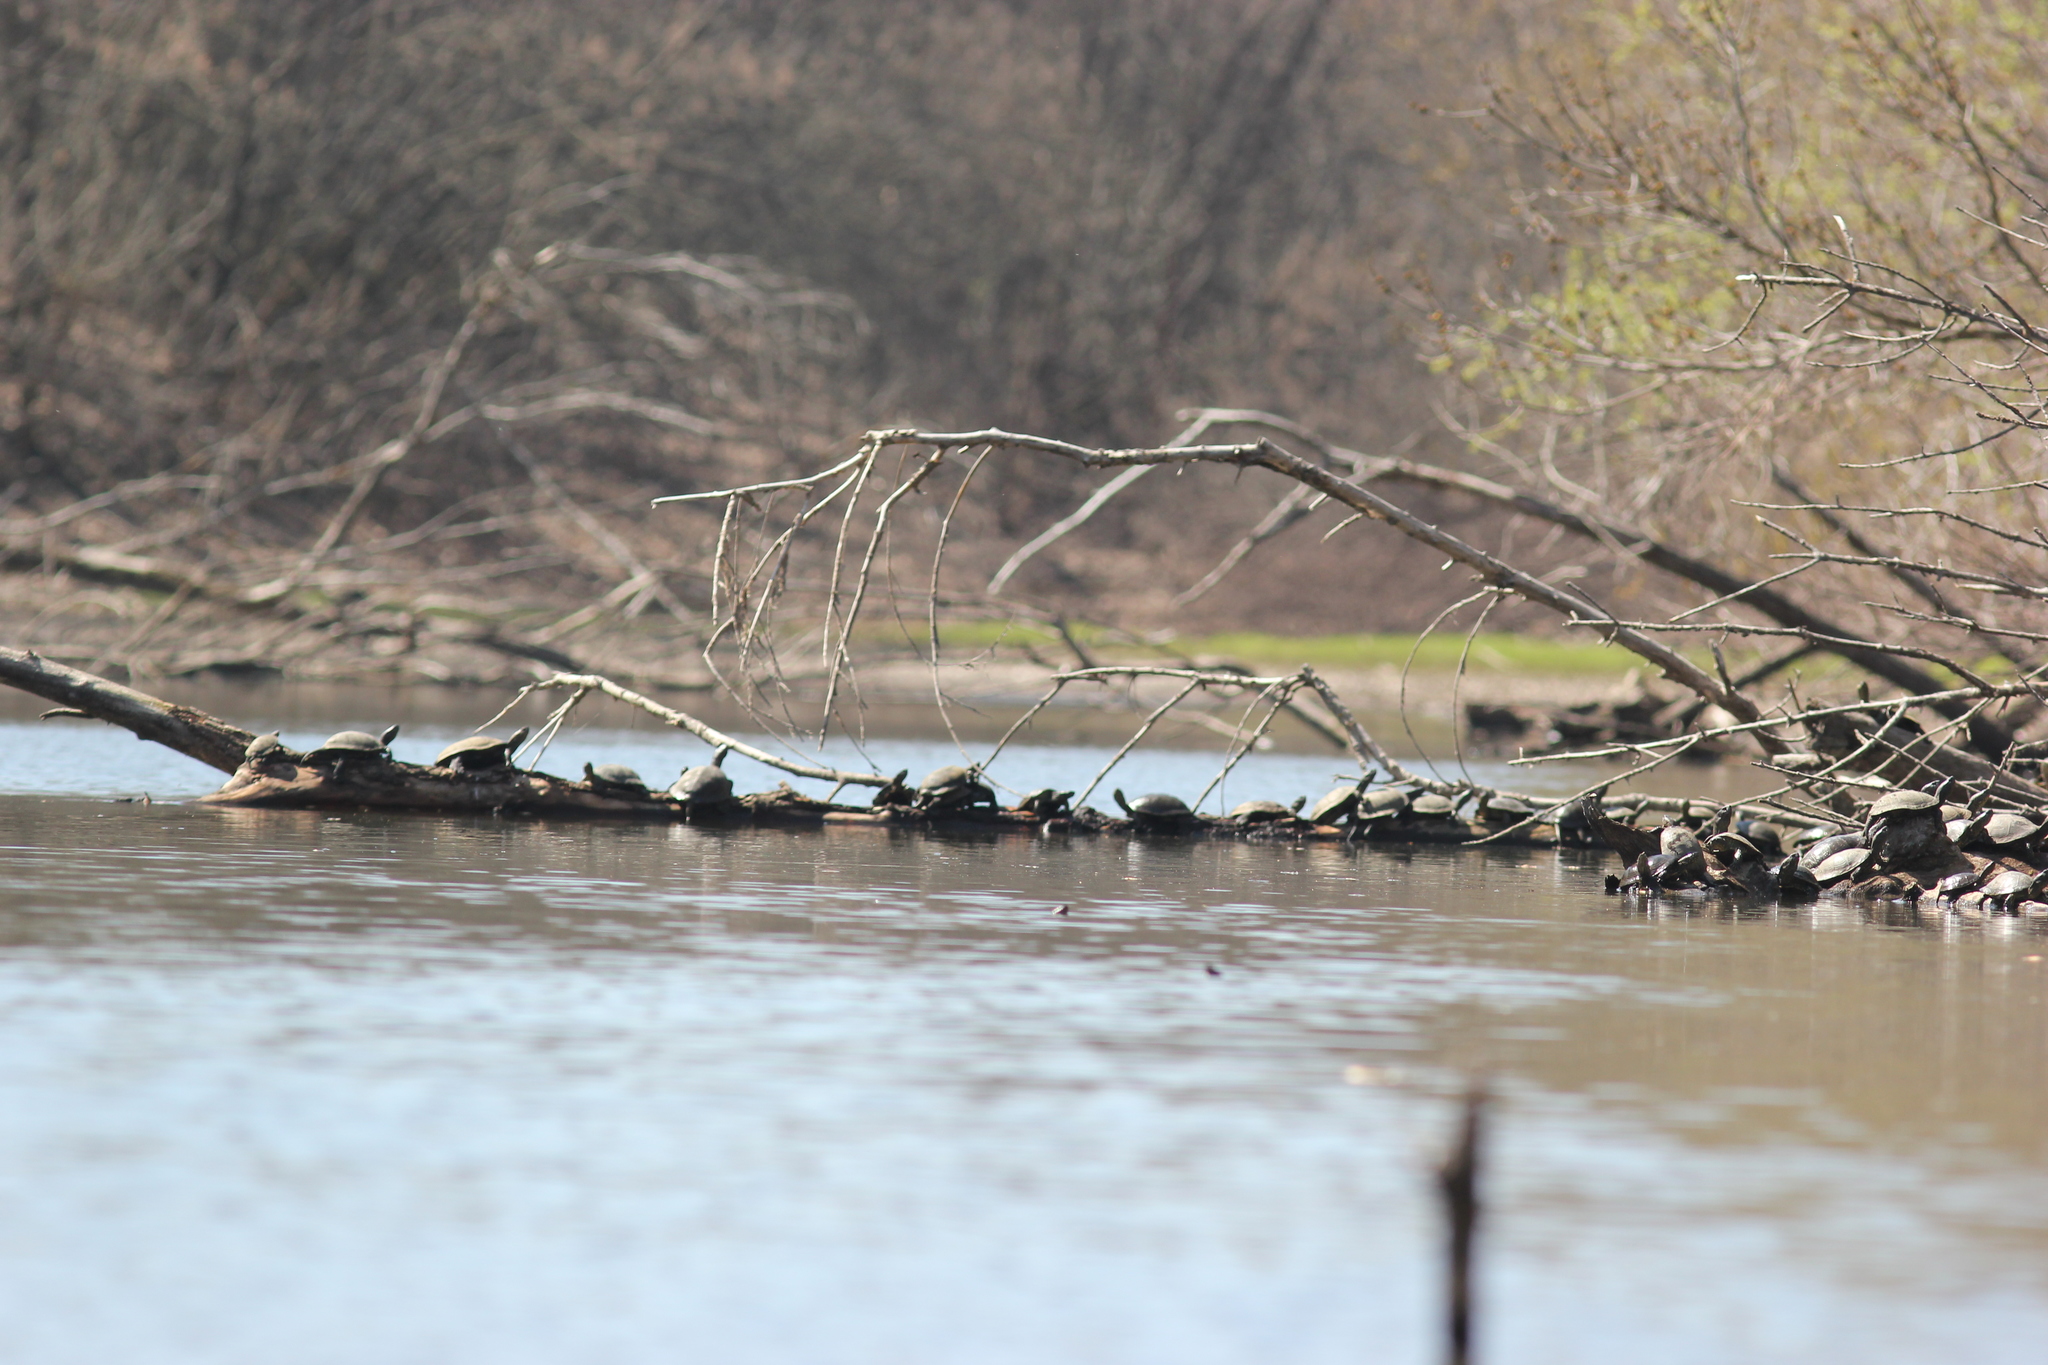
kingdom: Animalia
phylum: Chordata
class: Testudines
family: Emydidae
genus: Emys
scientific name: Emys orbicularis
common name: European pond turtle
